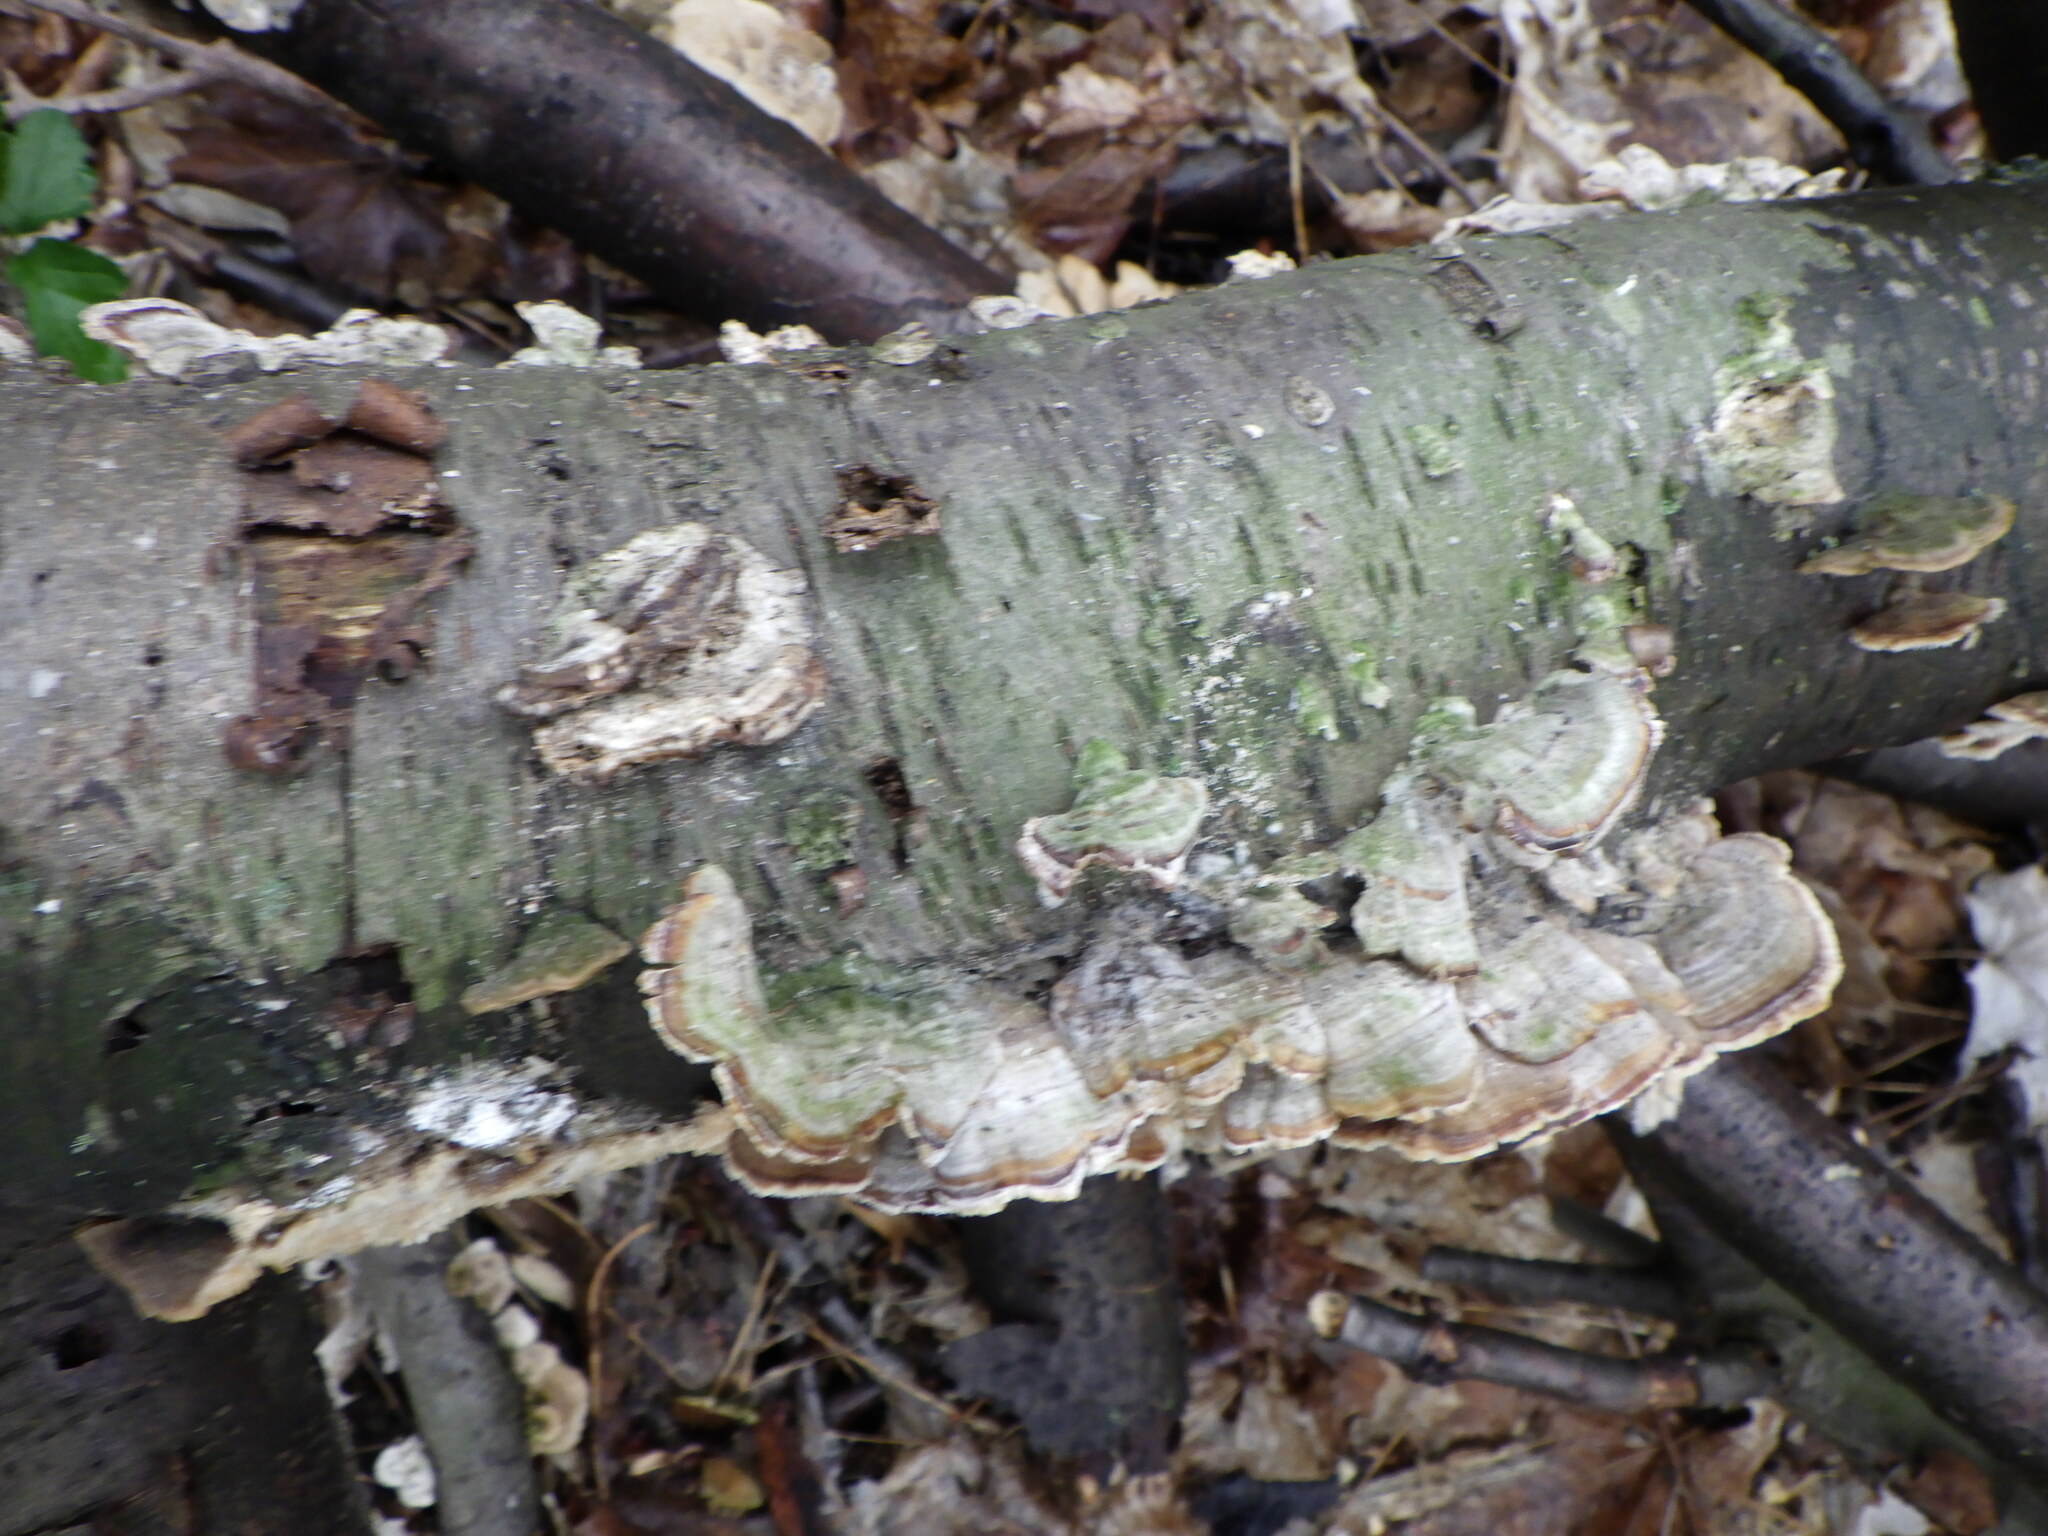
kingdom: Fungi
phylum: Basidiomycota
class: Agaricomycetes
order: Polyporales
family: Polyporaceae
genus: Trametes
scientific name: Trametes versicolor
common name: Turkeytail
